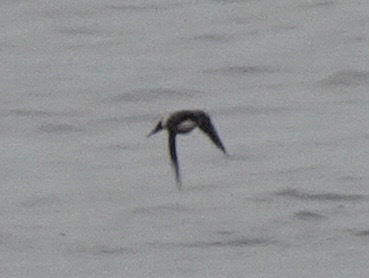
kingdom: Animalia
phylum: Chordata
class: Aves
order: Passeriformes
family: Hirundinidae
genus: Delichon
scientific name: Delichon urbicum
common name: Common house martin
